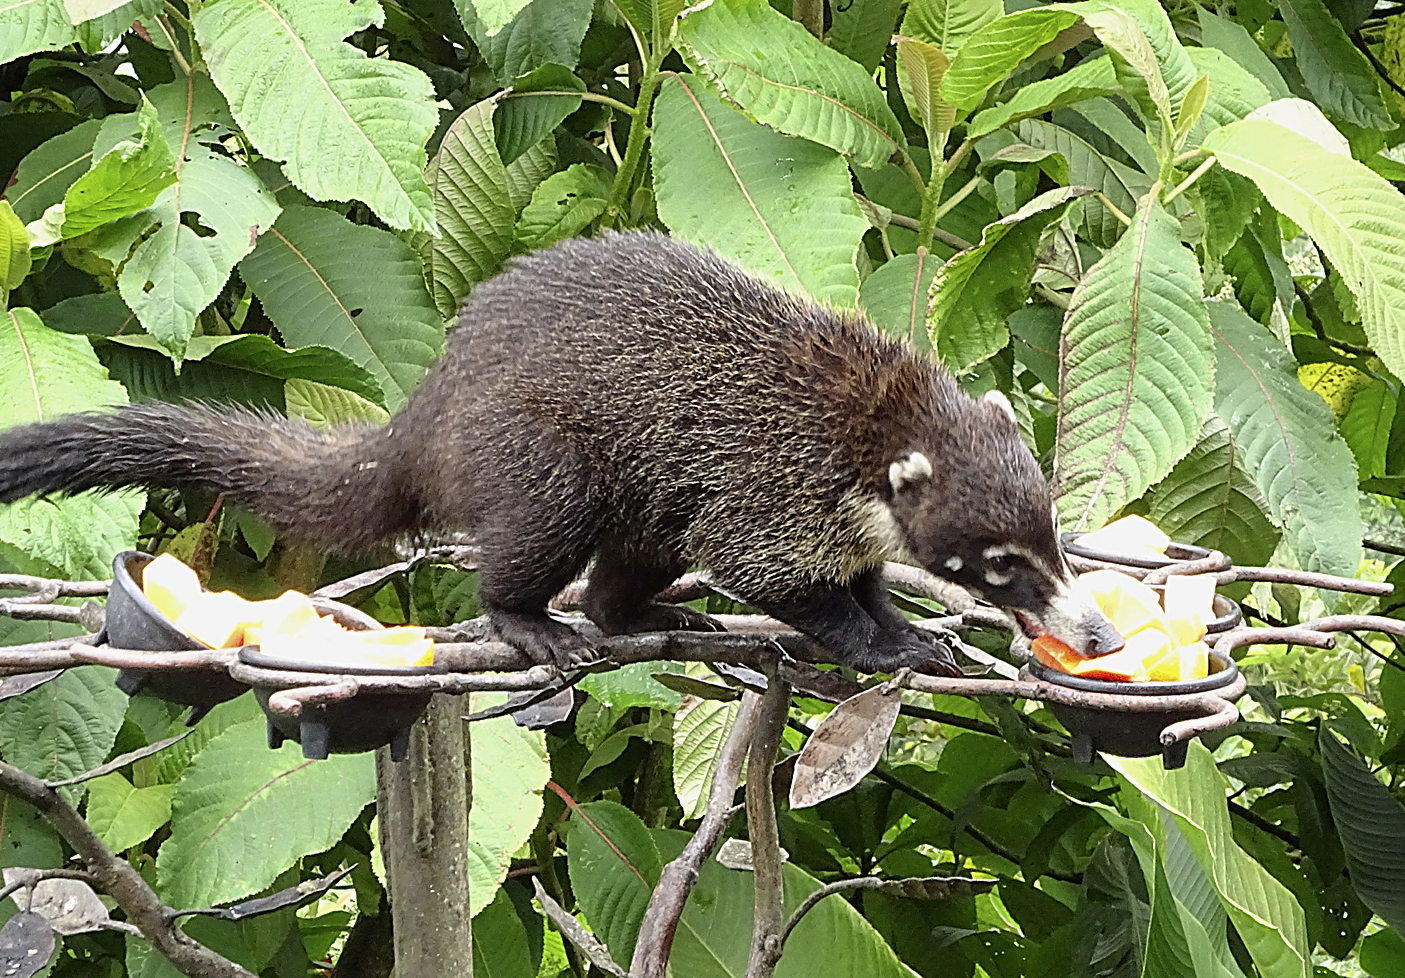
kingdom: Animalia
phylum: Chordata
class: Mammalia
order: Carnivora
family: Procyonidae
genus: Nasua
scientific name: Nasua narica
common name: White-nosed coati
